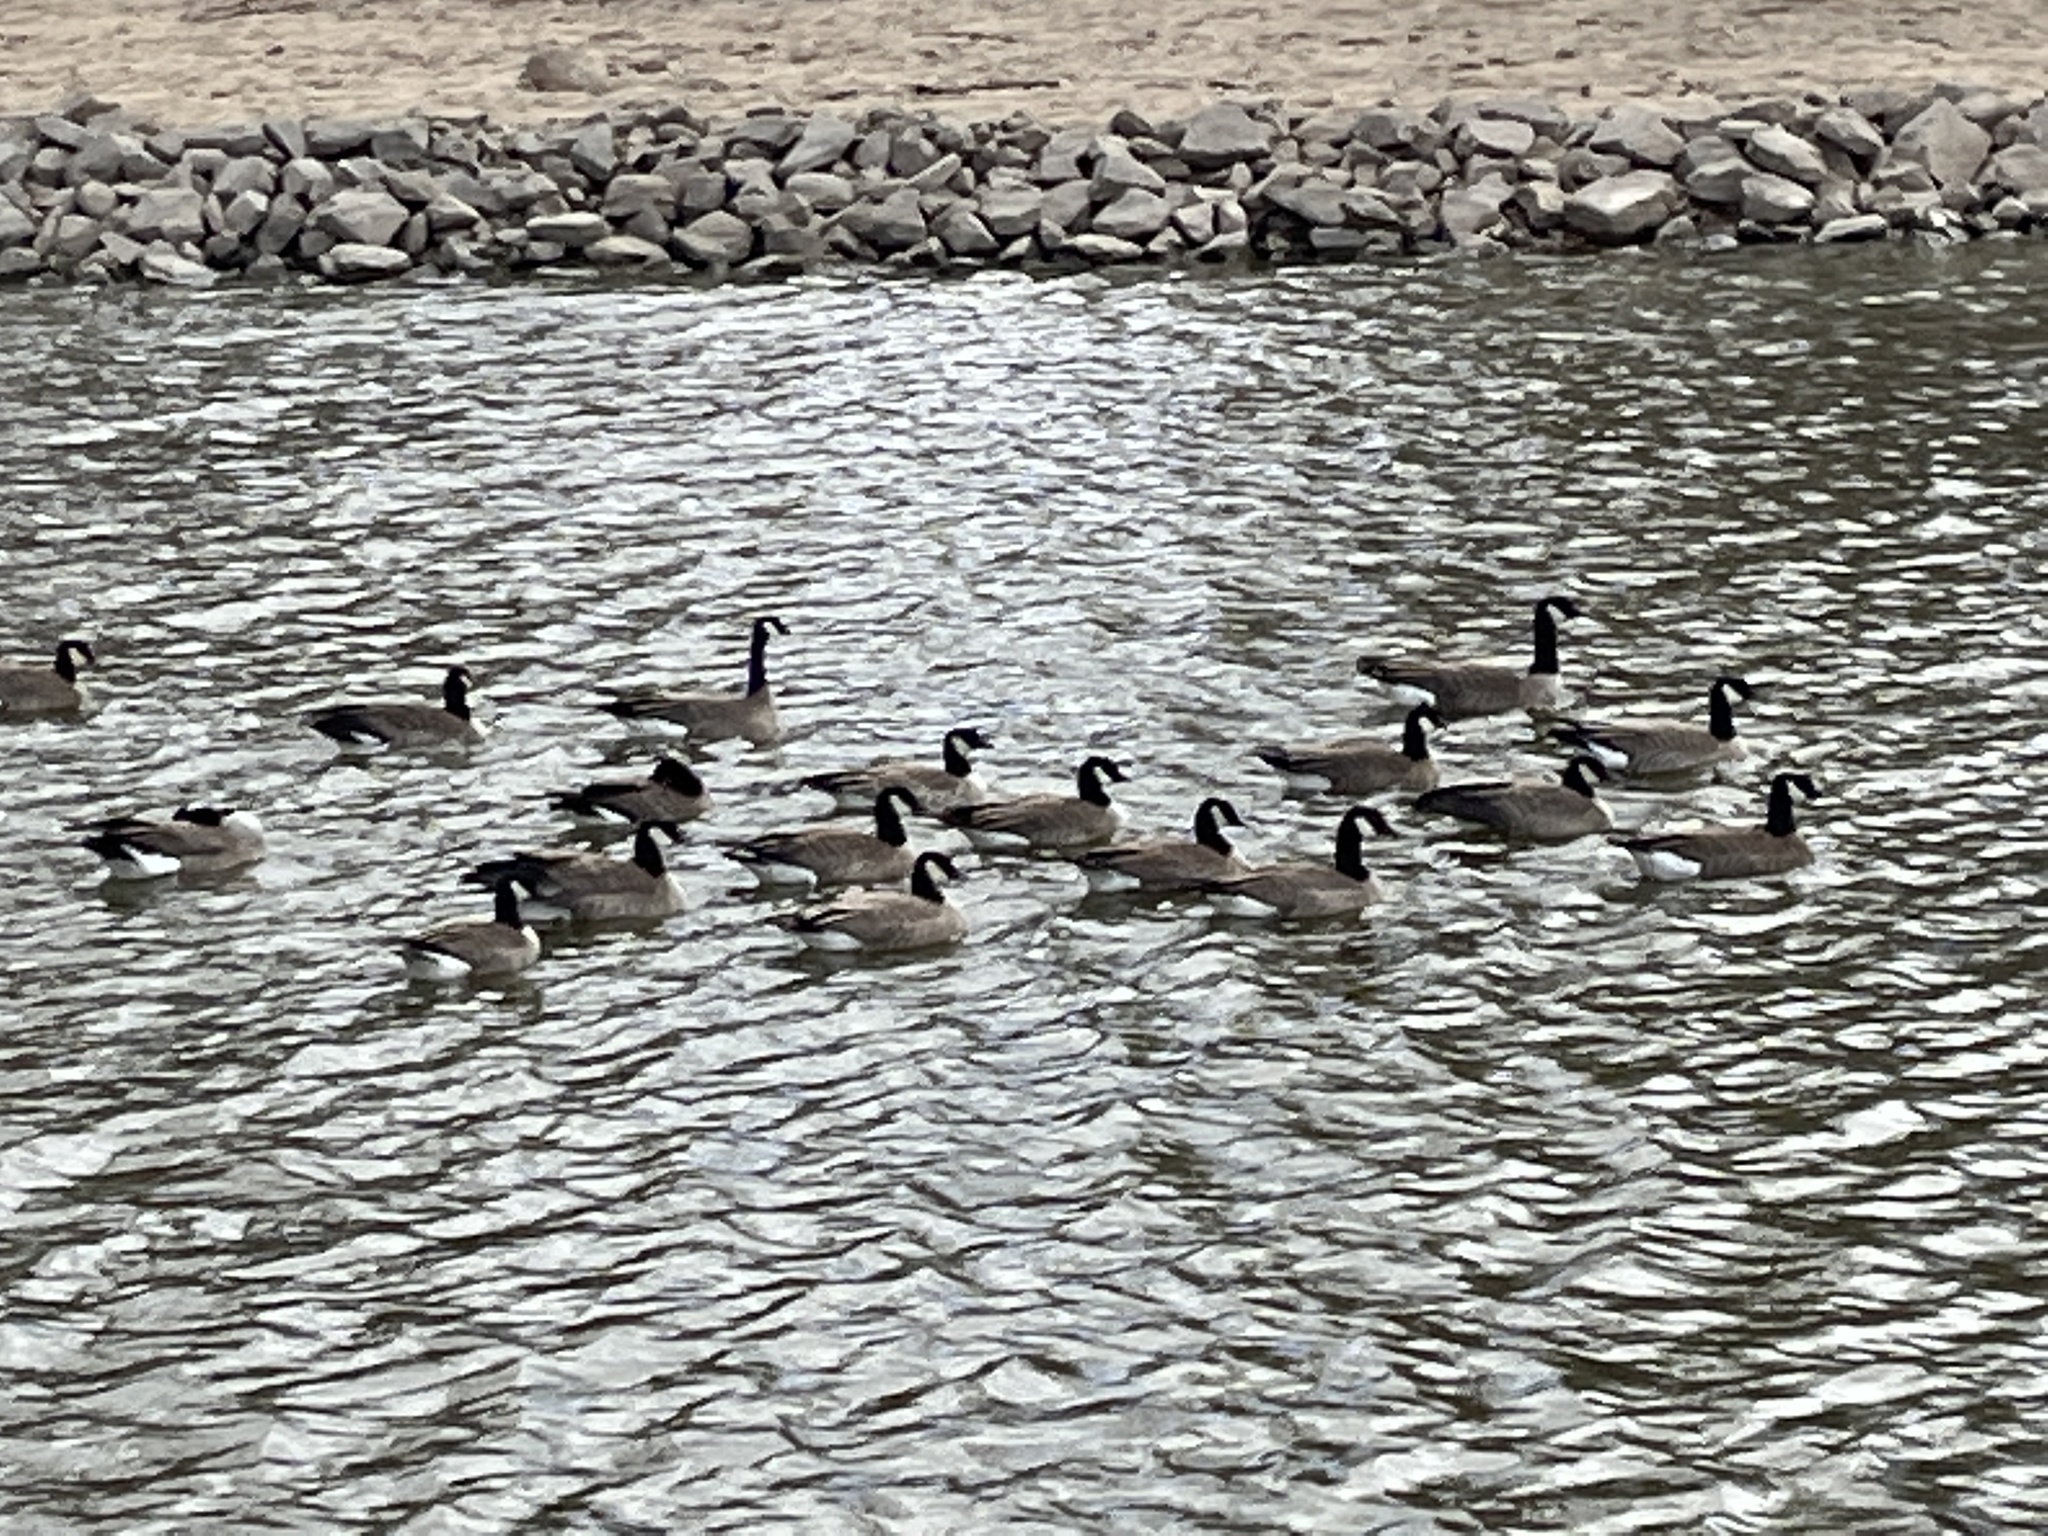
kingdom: Animalia
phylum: Chordata
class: Aves
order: Anseriformes
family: Anatidae
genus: Branta
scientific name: Branta canadensis
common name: Canada goose
